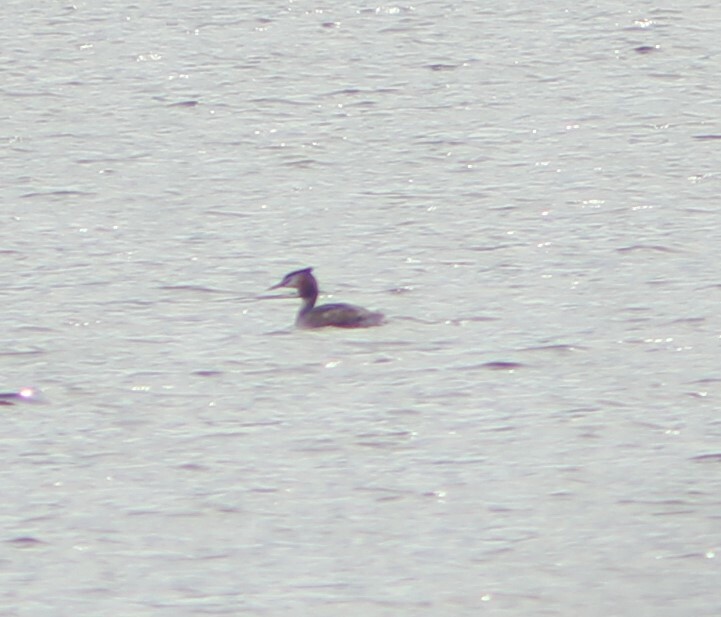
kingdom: Animalia
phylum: Chordata
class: Aves
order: Podicipediformes
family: Podicipedidae
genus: Podiceps
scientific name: Podiceps cristatus
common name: Great crested grebe
